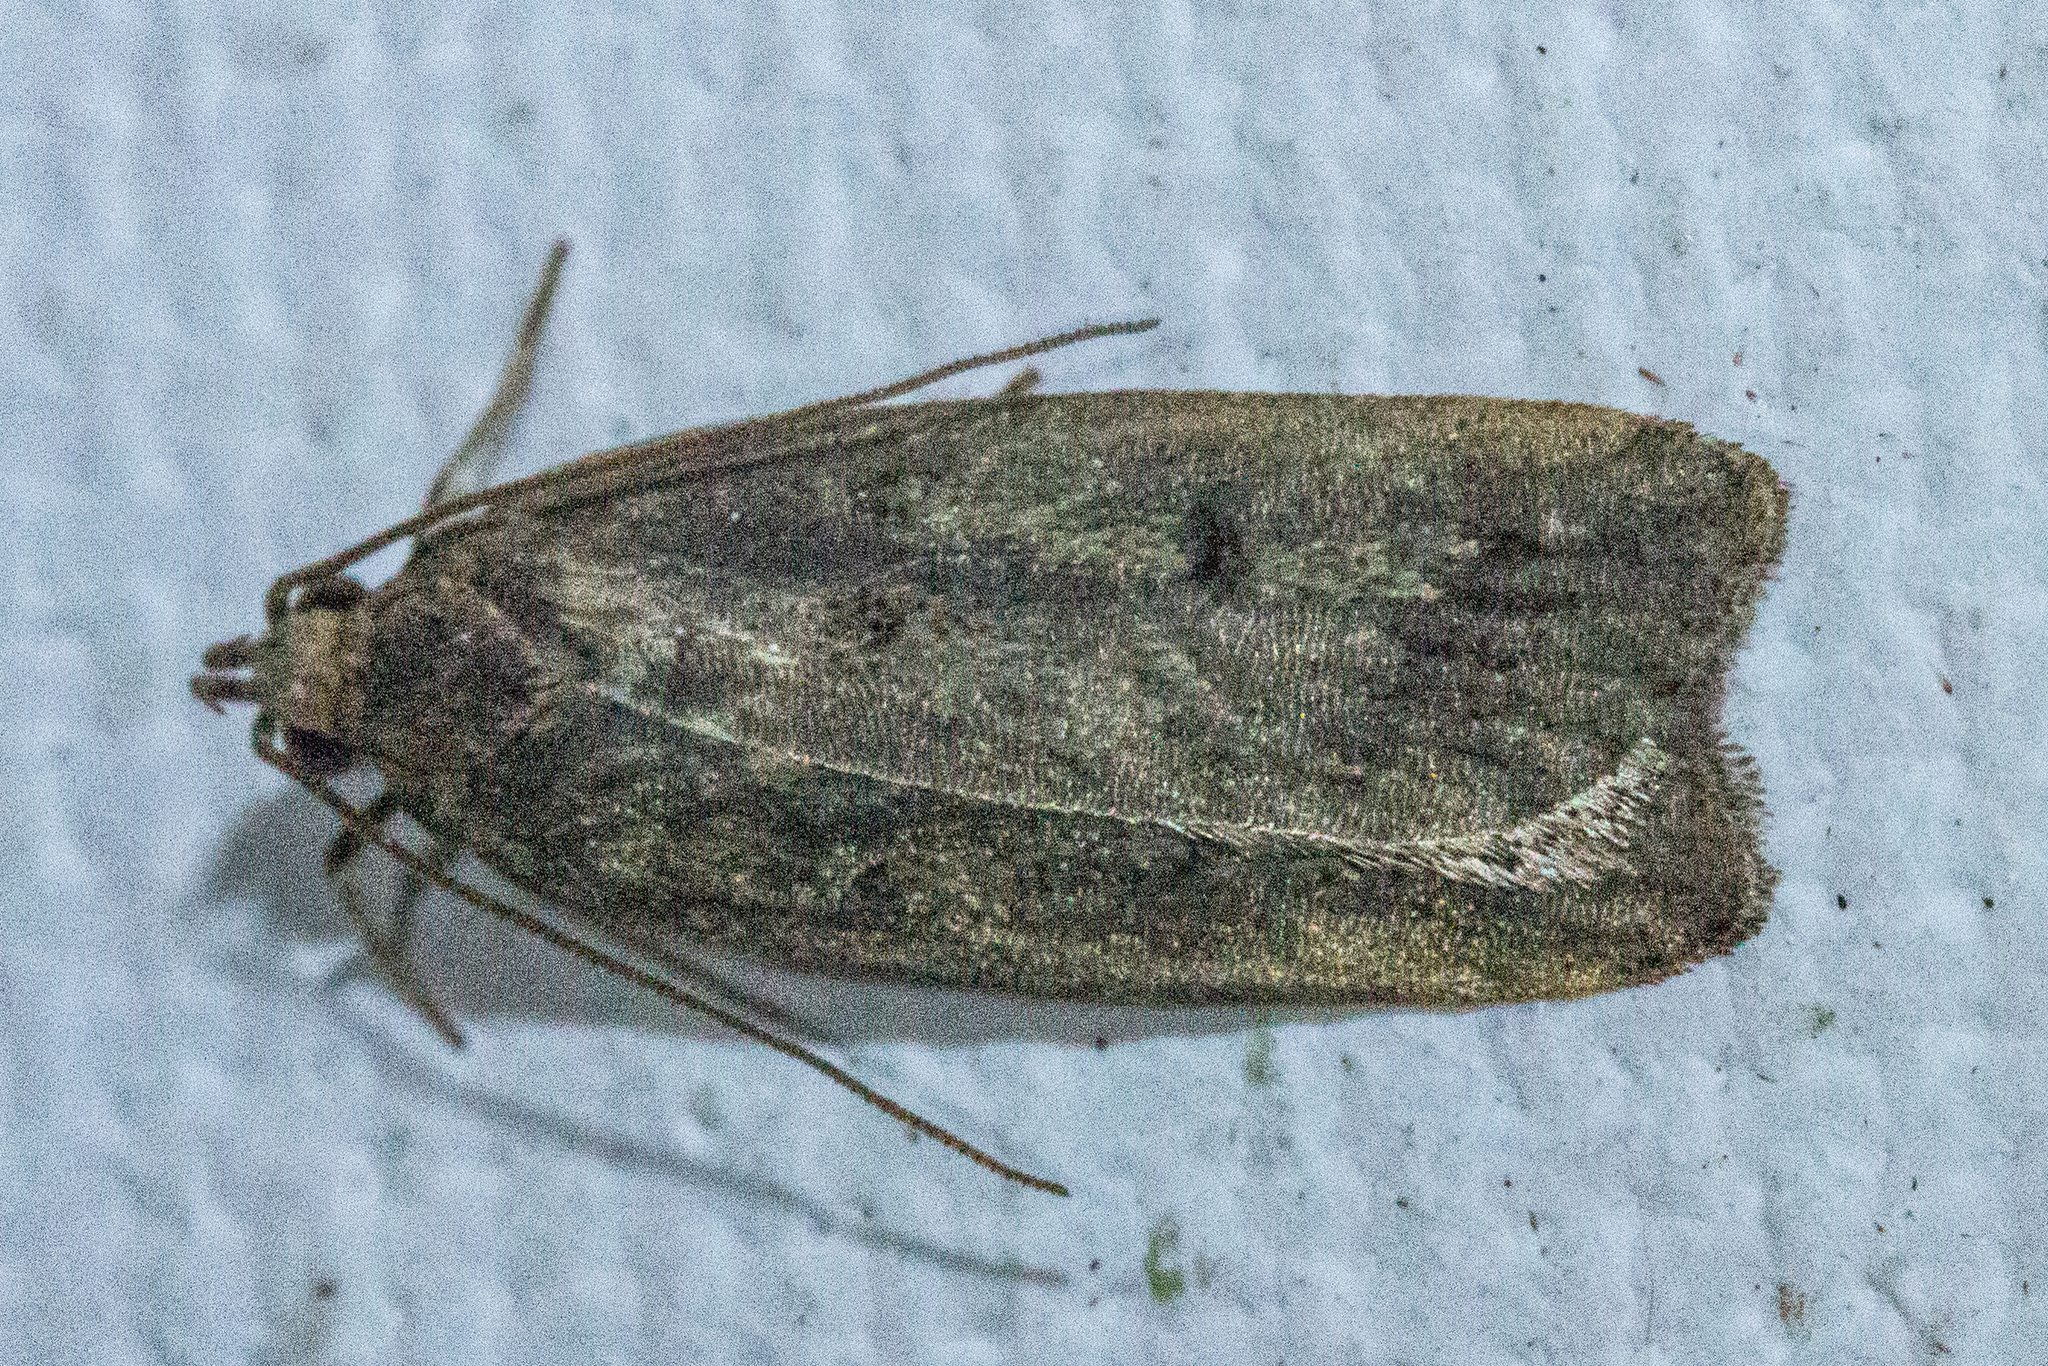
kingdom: Animalia
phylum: Arthropoda
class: Insecta
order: Lepidoptera
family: Depressariidae
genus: Phaeosaces
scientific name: Phaeosaces apocrypta
